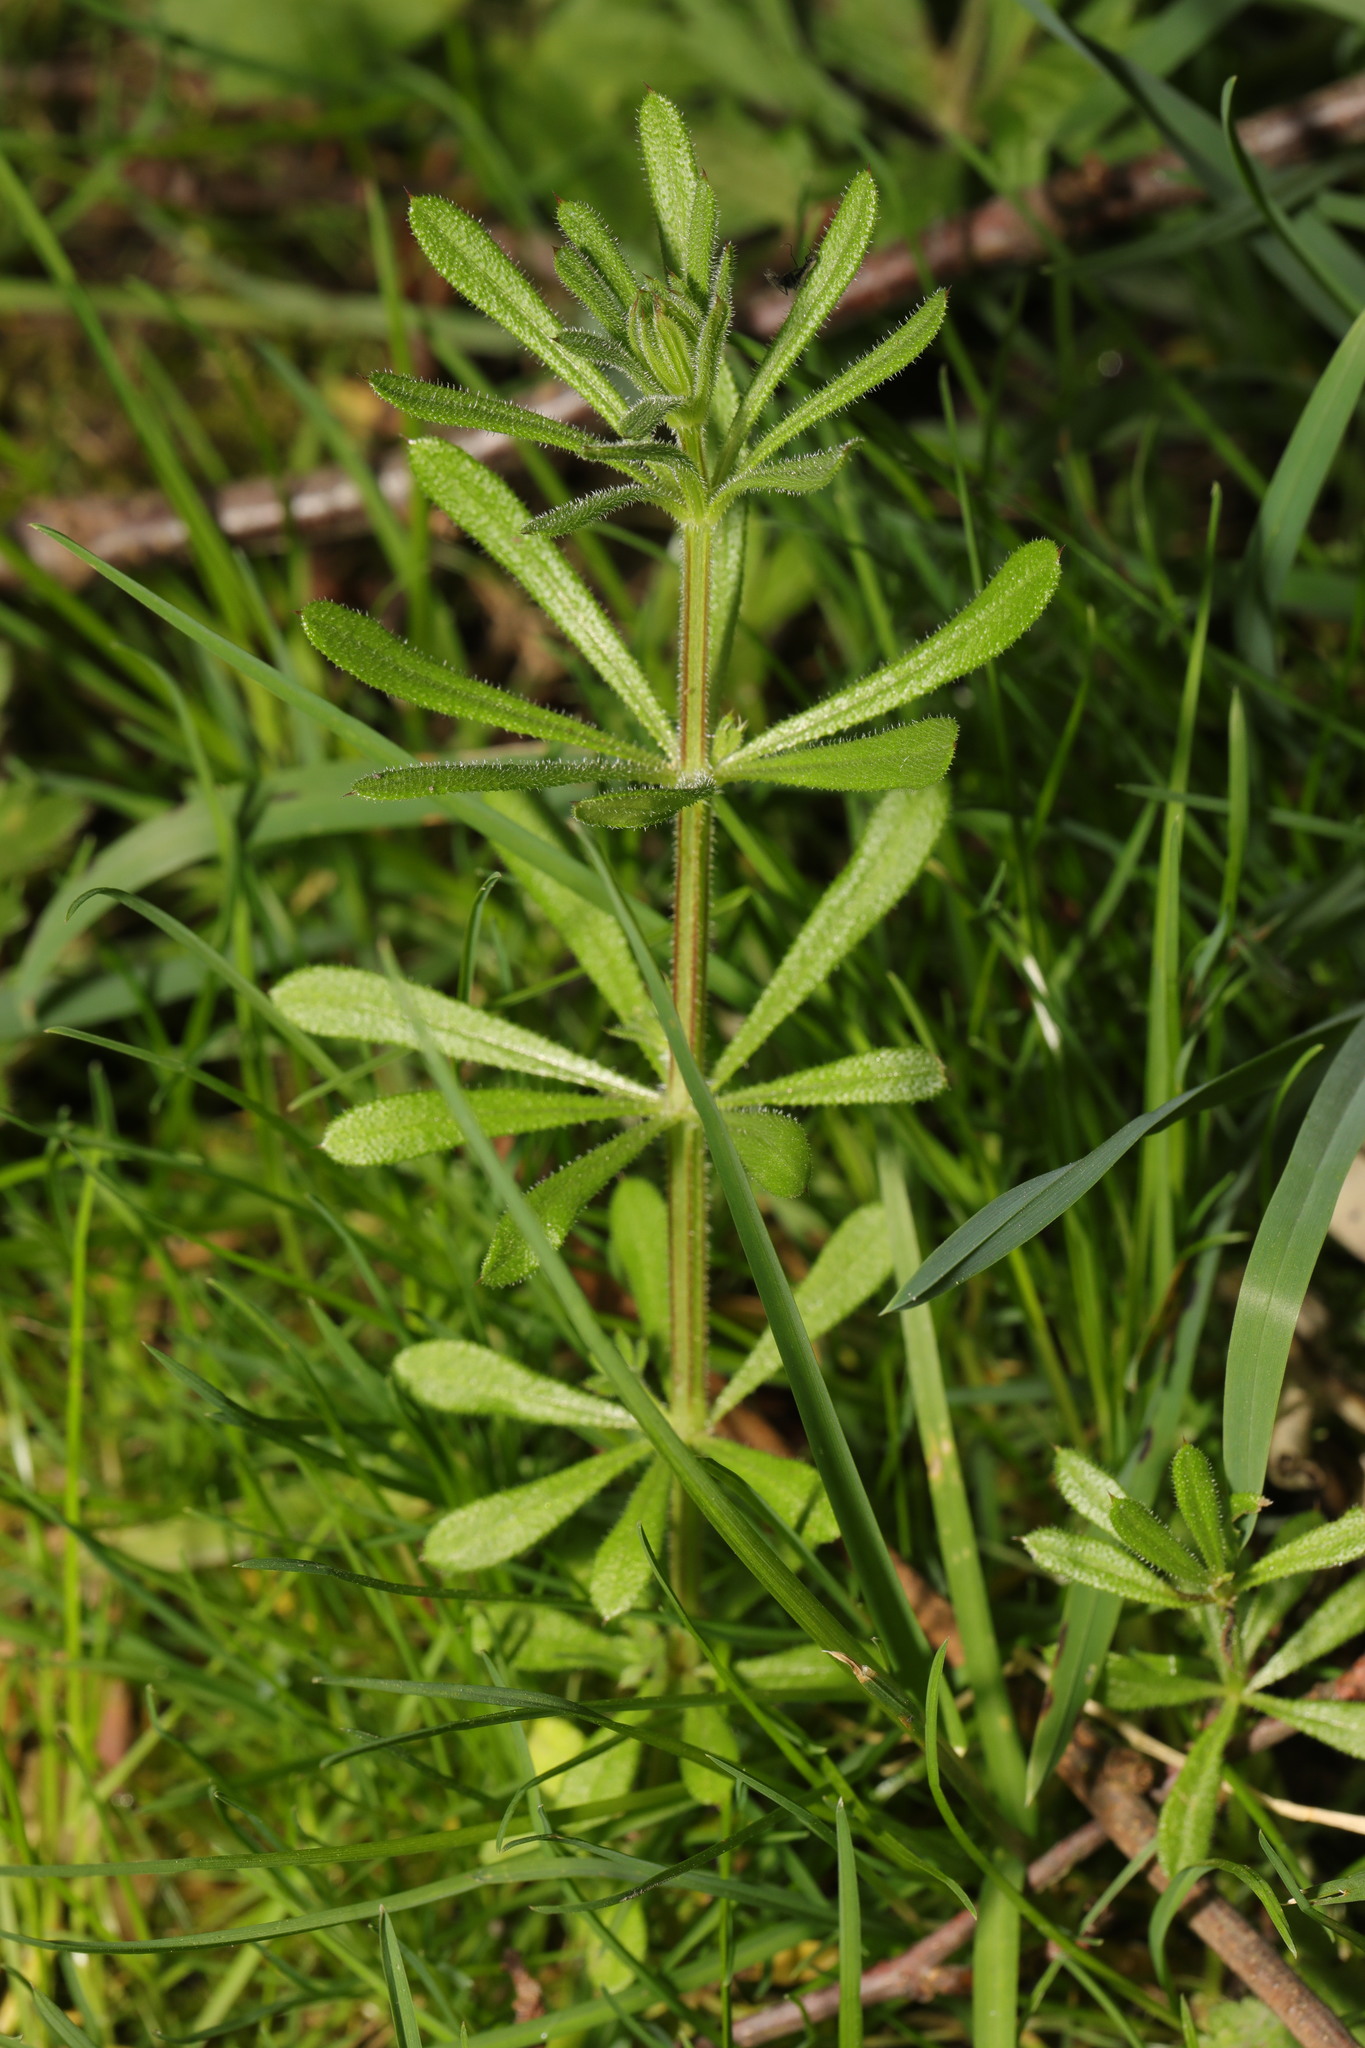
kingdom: Plantae
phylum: Tracheophyta
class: Magnoliopsida
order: Gentianales
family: Rubiaceae
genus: Galium
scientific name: Galium aparine
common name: Cleavers
